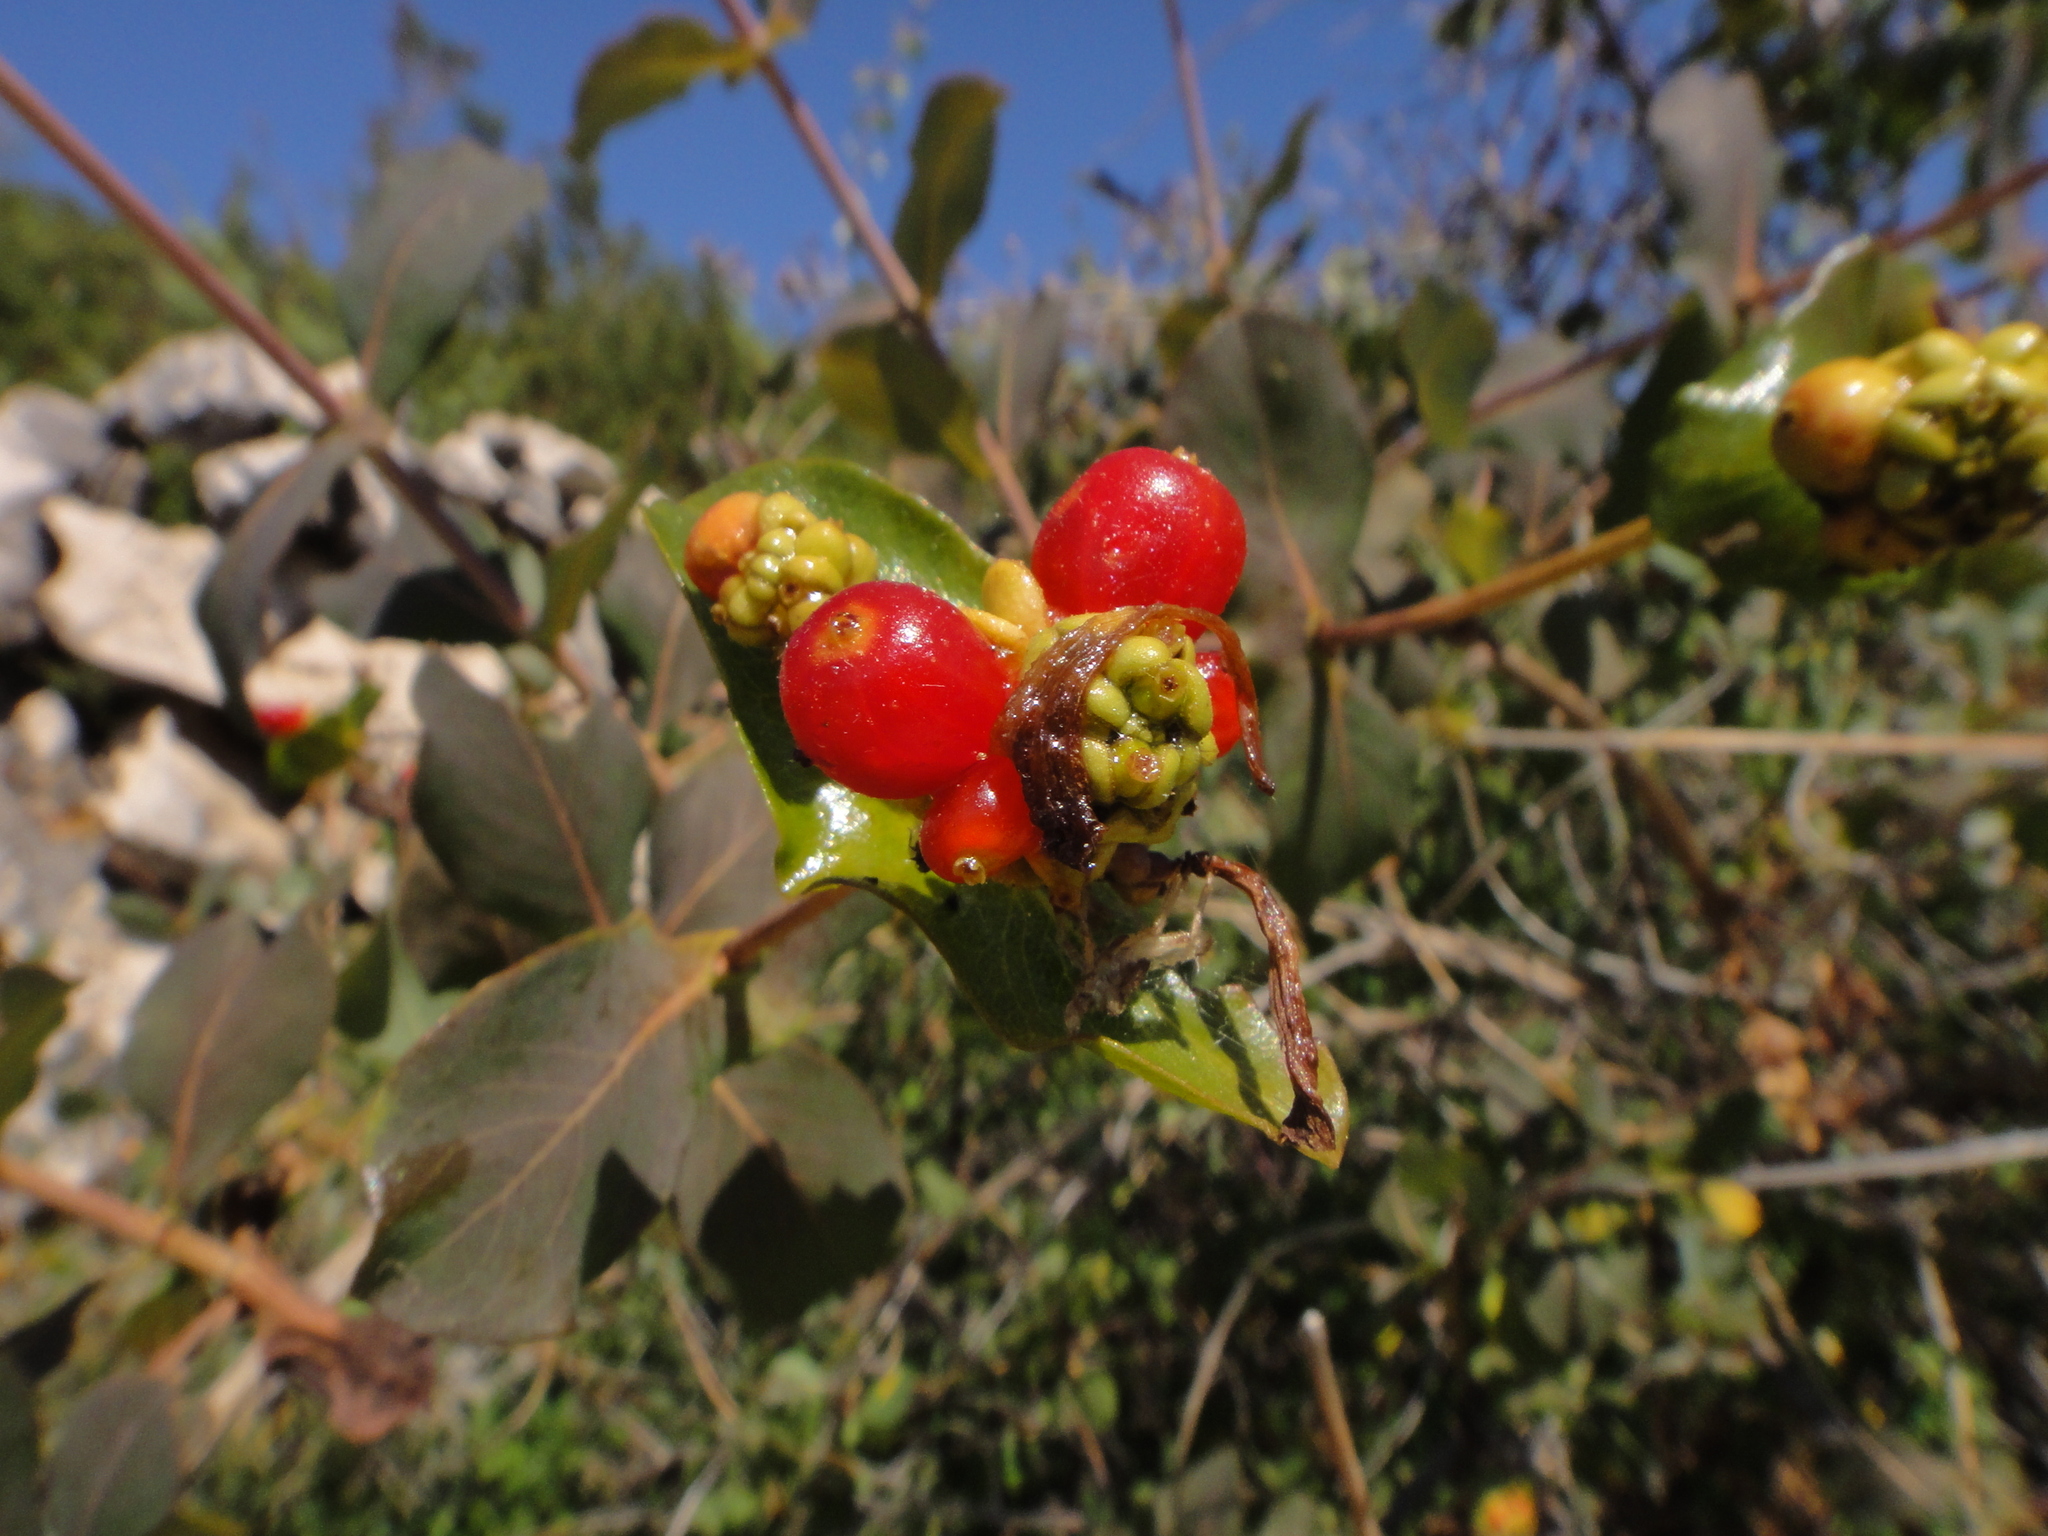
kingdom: Plantae
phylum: Tracheophyta
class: Magnoliopsida
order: Dipsacales
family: Caprifoliaceae
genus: Lonicera
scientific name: Lonicera etrusca
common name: Etruscan honeysuckle
